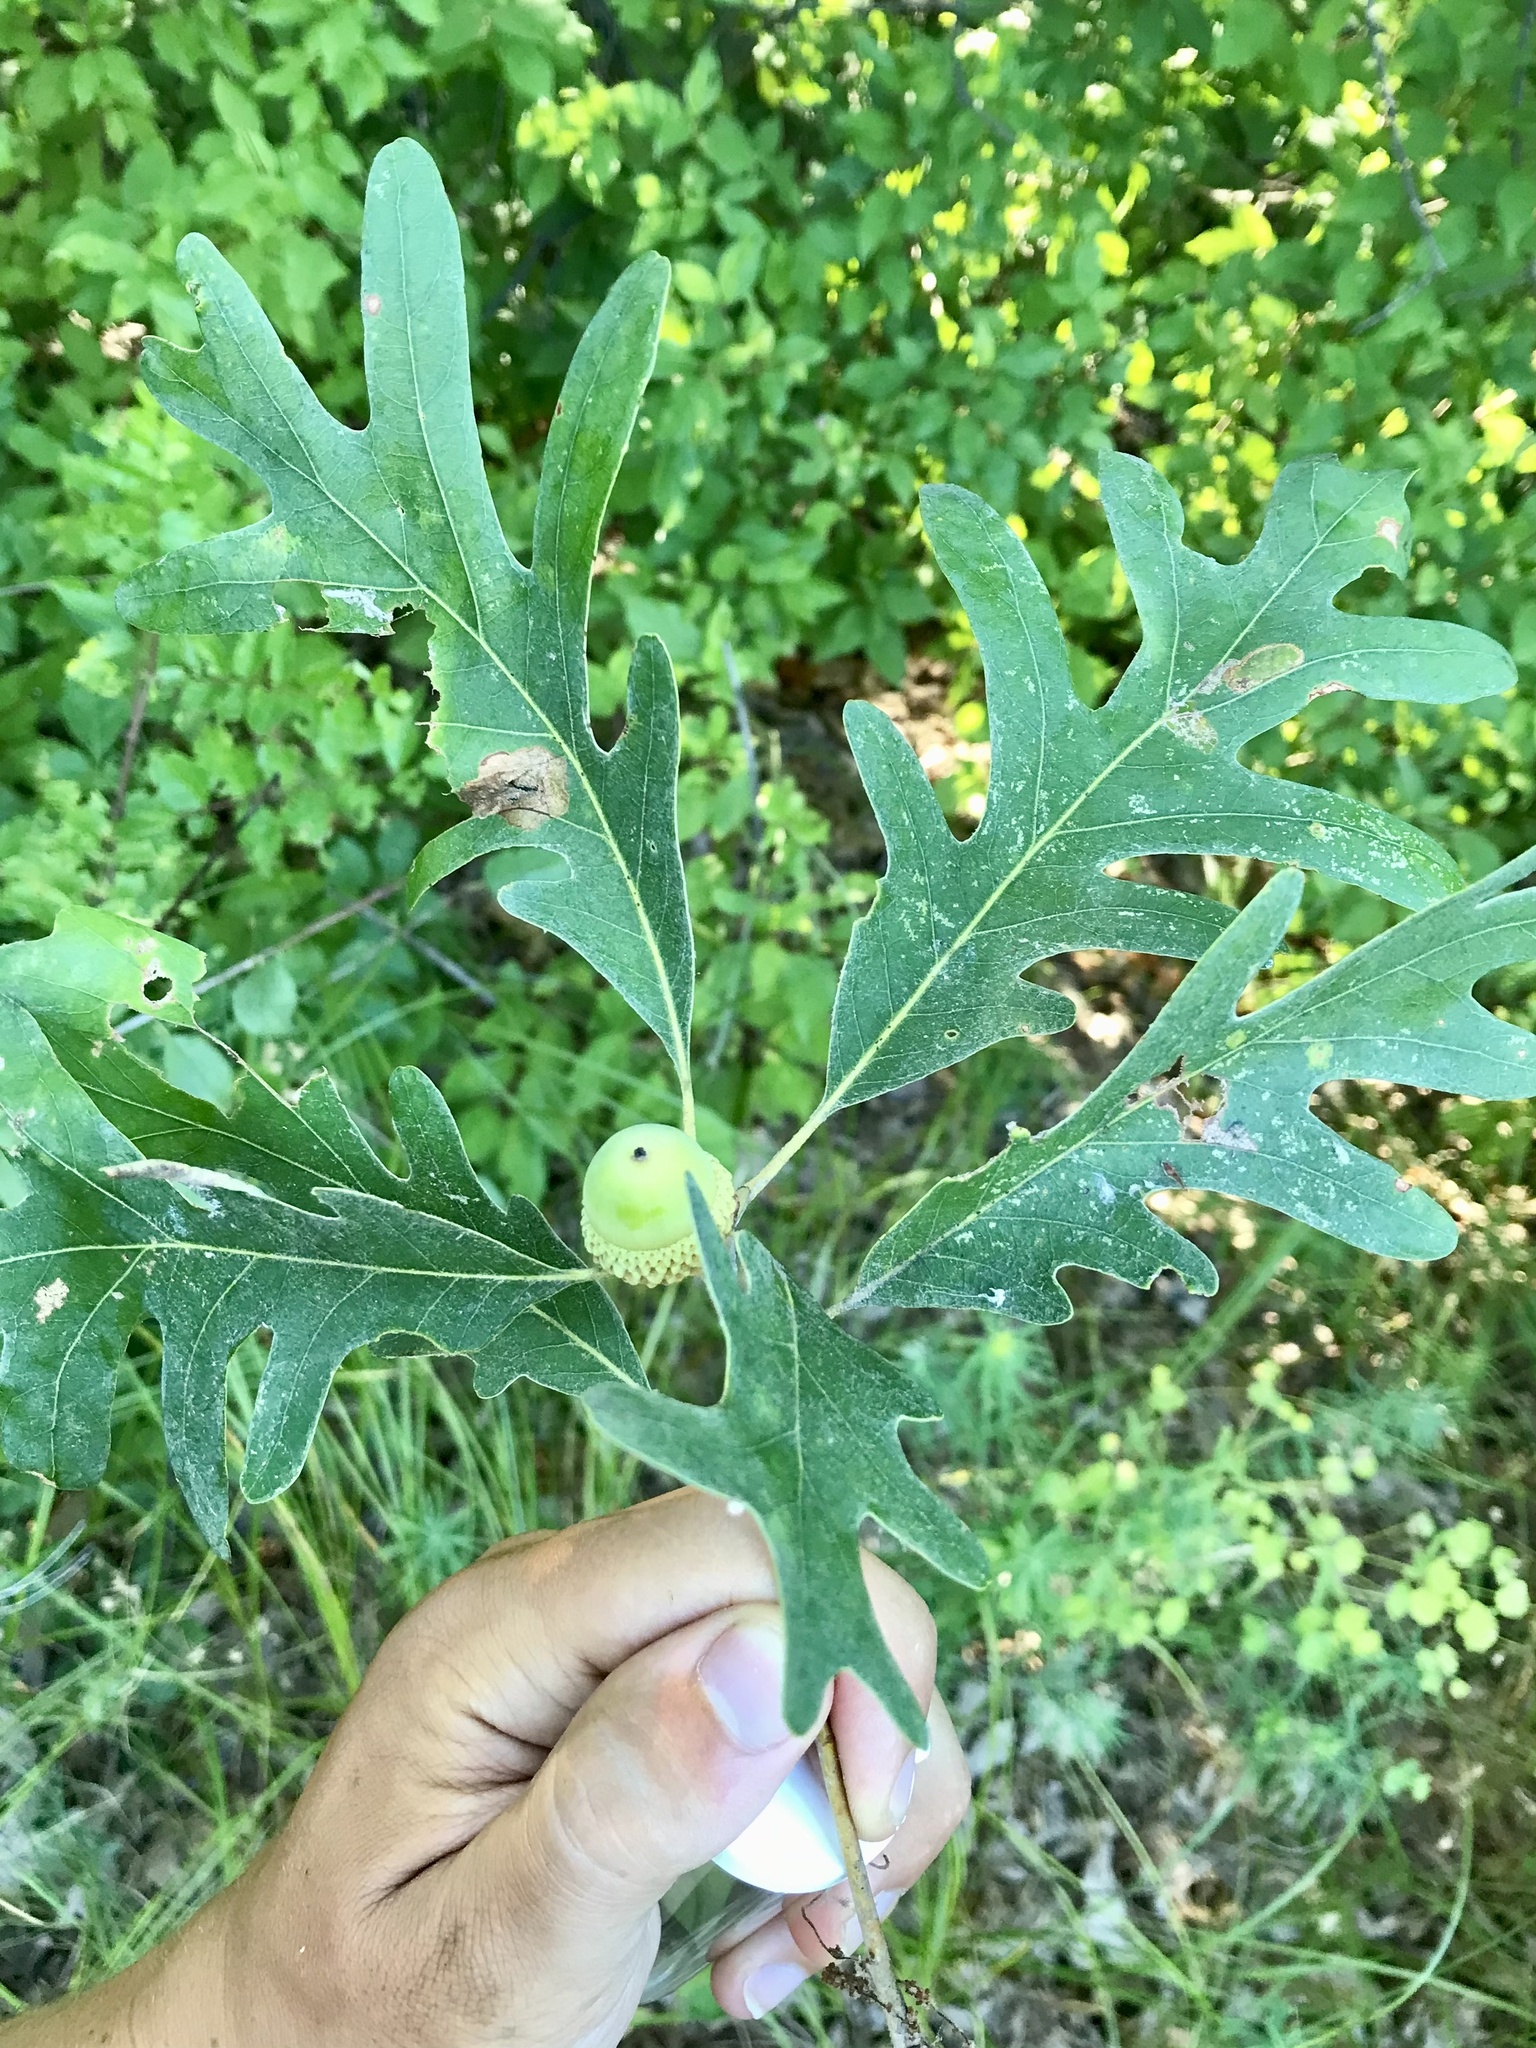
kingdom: Plantae
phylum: Tracheophyta
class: Magnoliopsida
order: Fagales
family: Fagaceae
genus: Quercus
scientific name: Quercus alba
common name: White oak
